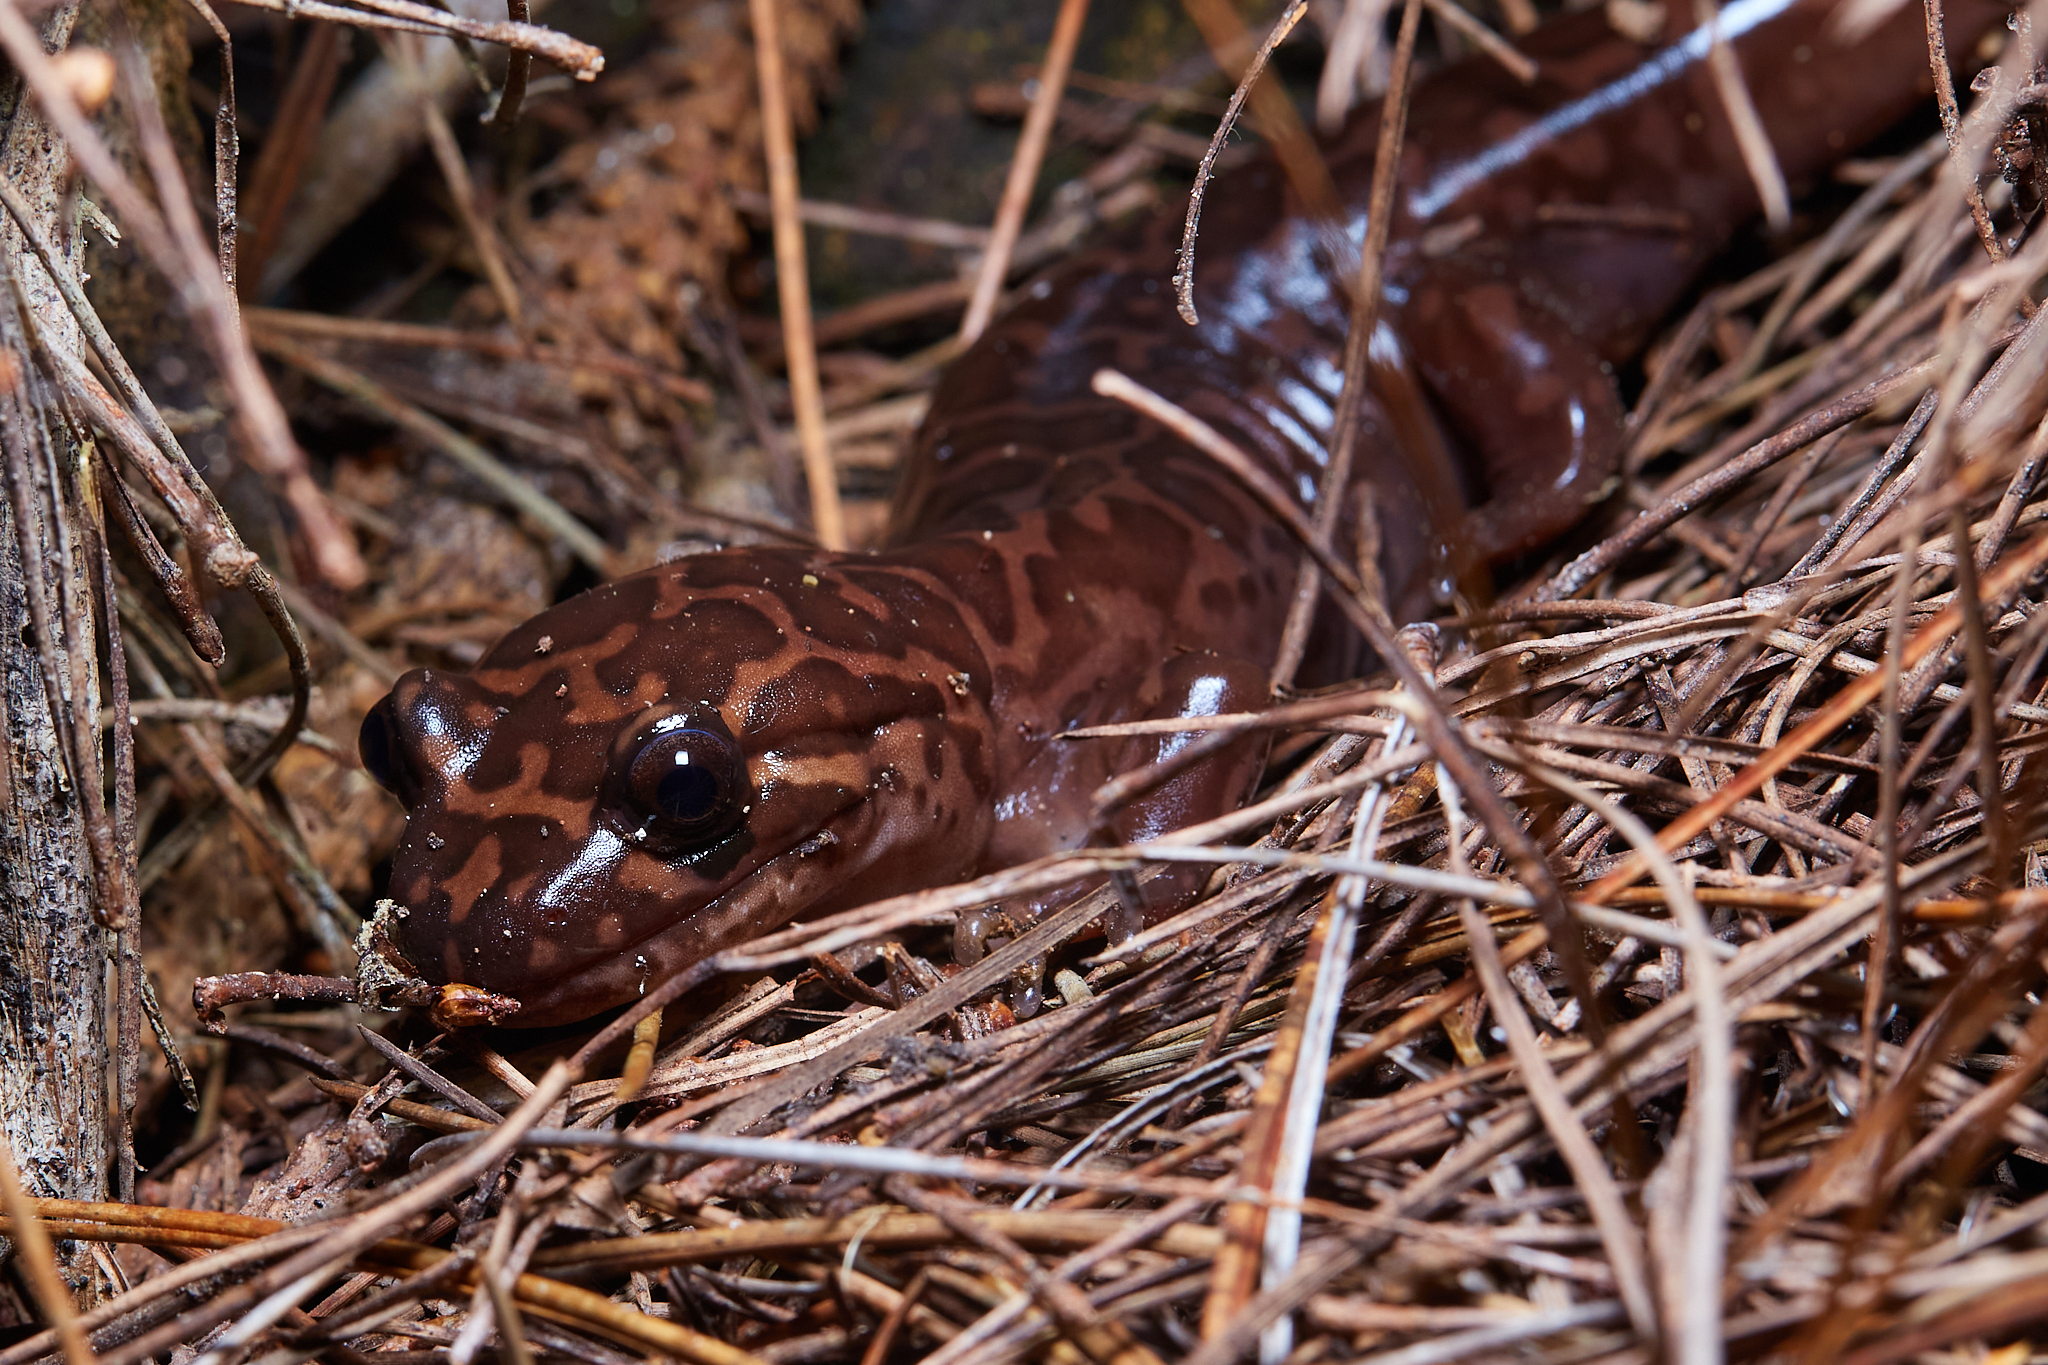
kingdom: Animalia
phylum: Chordata
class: Amphibia
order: Caudata
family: Ambystomatidae
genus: Dicamptodon
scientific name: Dicamptodon ensatus
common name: California giant salamander
